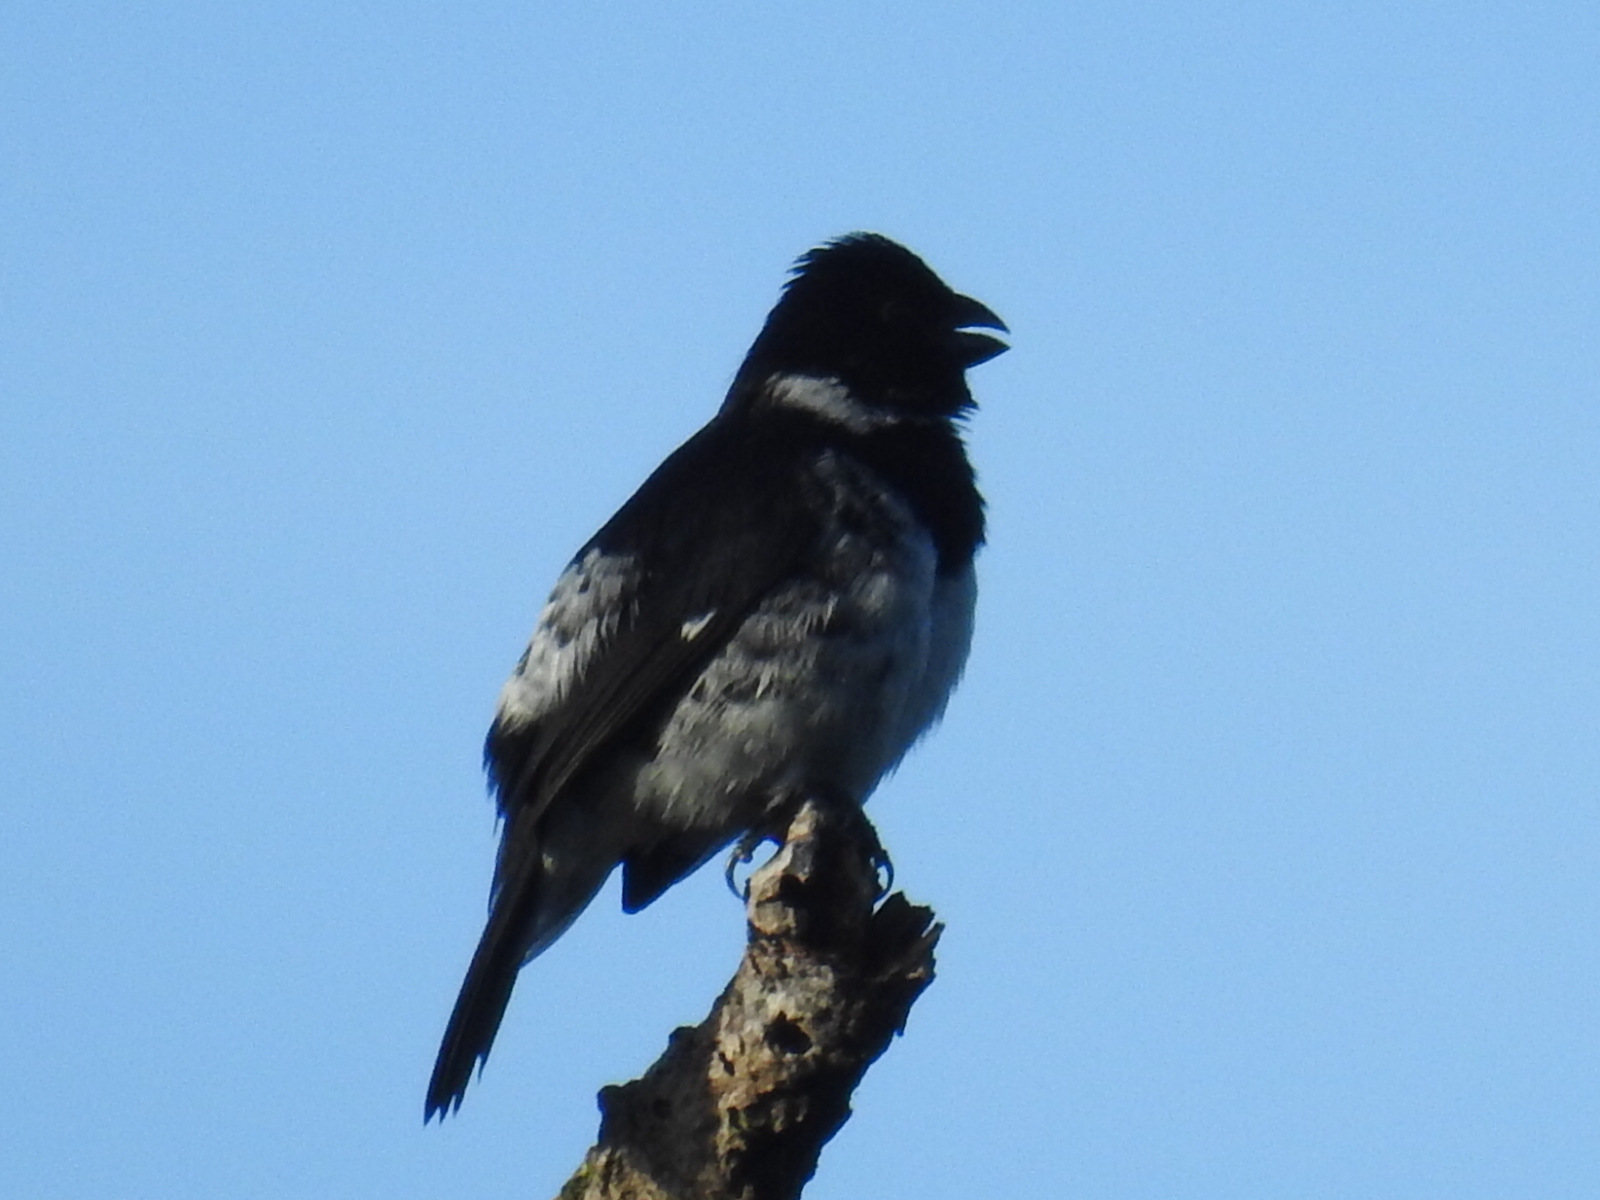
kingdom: Animalia
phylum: Chordata
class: Aves
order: Passeriformes
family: Thraupidae
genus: Sporophila
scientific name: Sporophila corvina
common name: Variable seedeater
